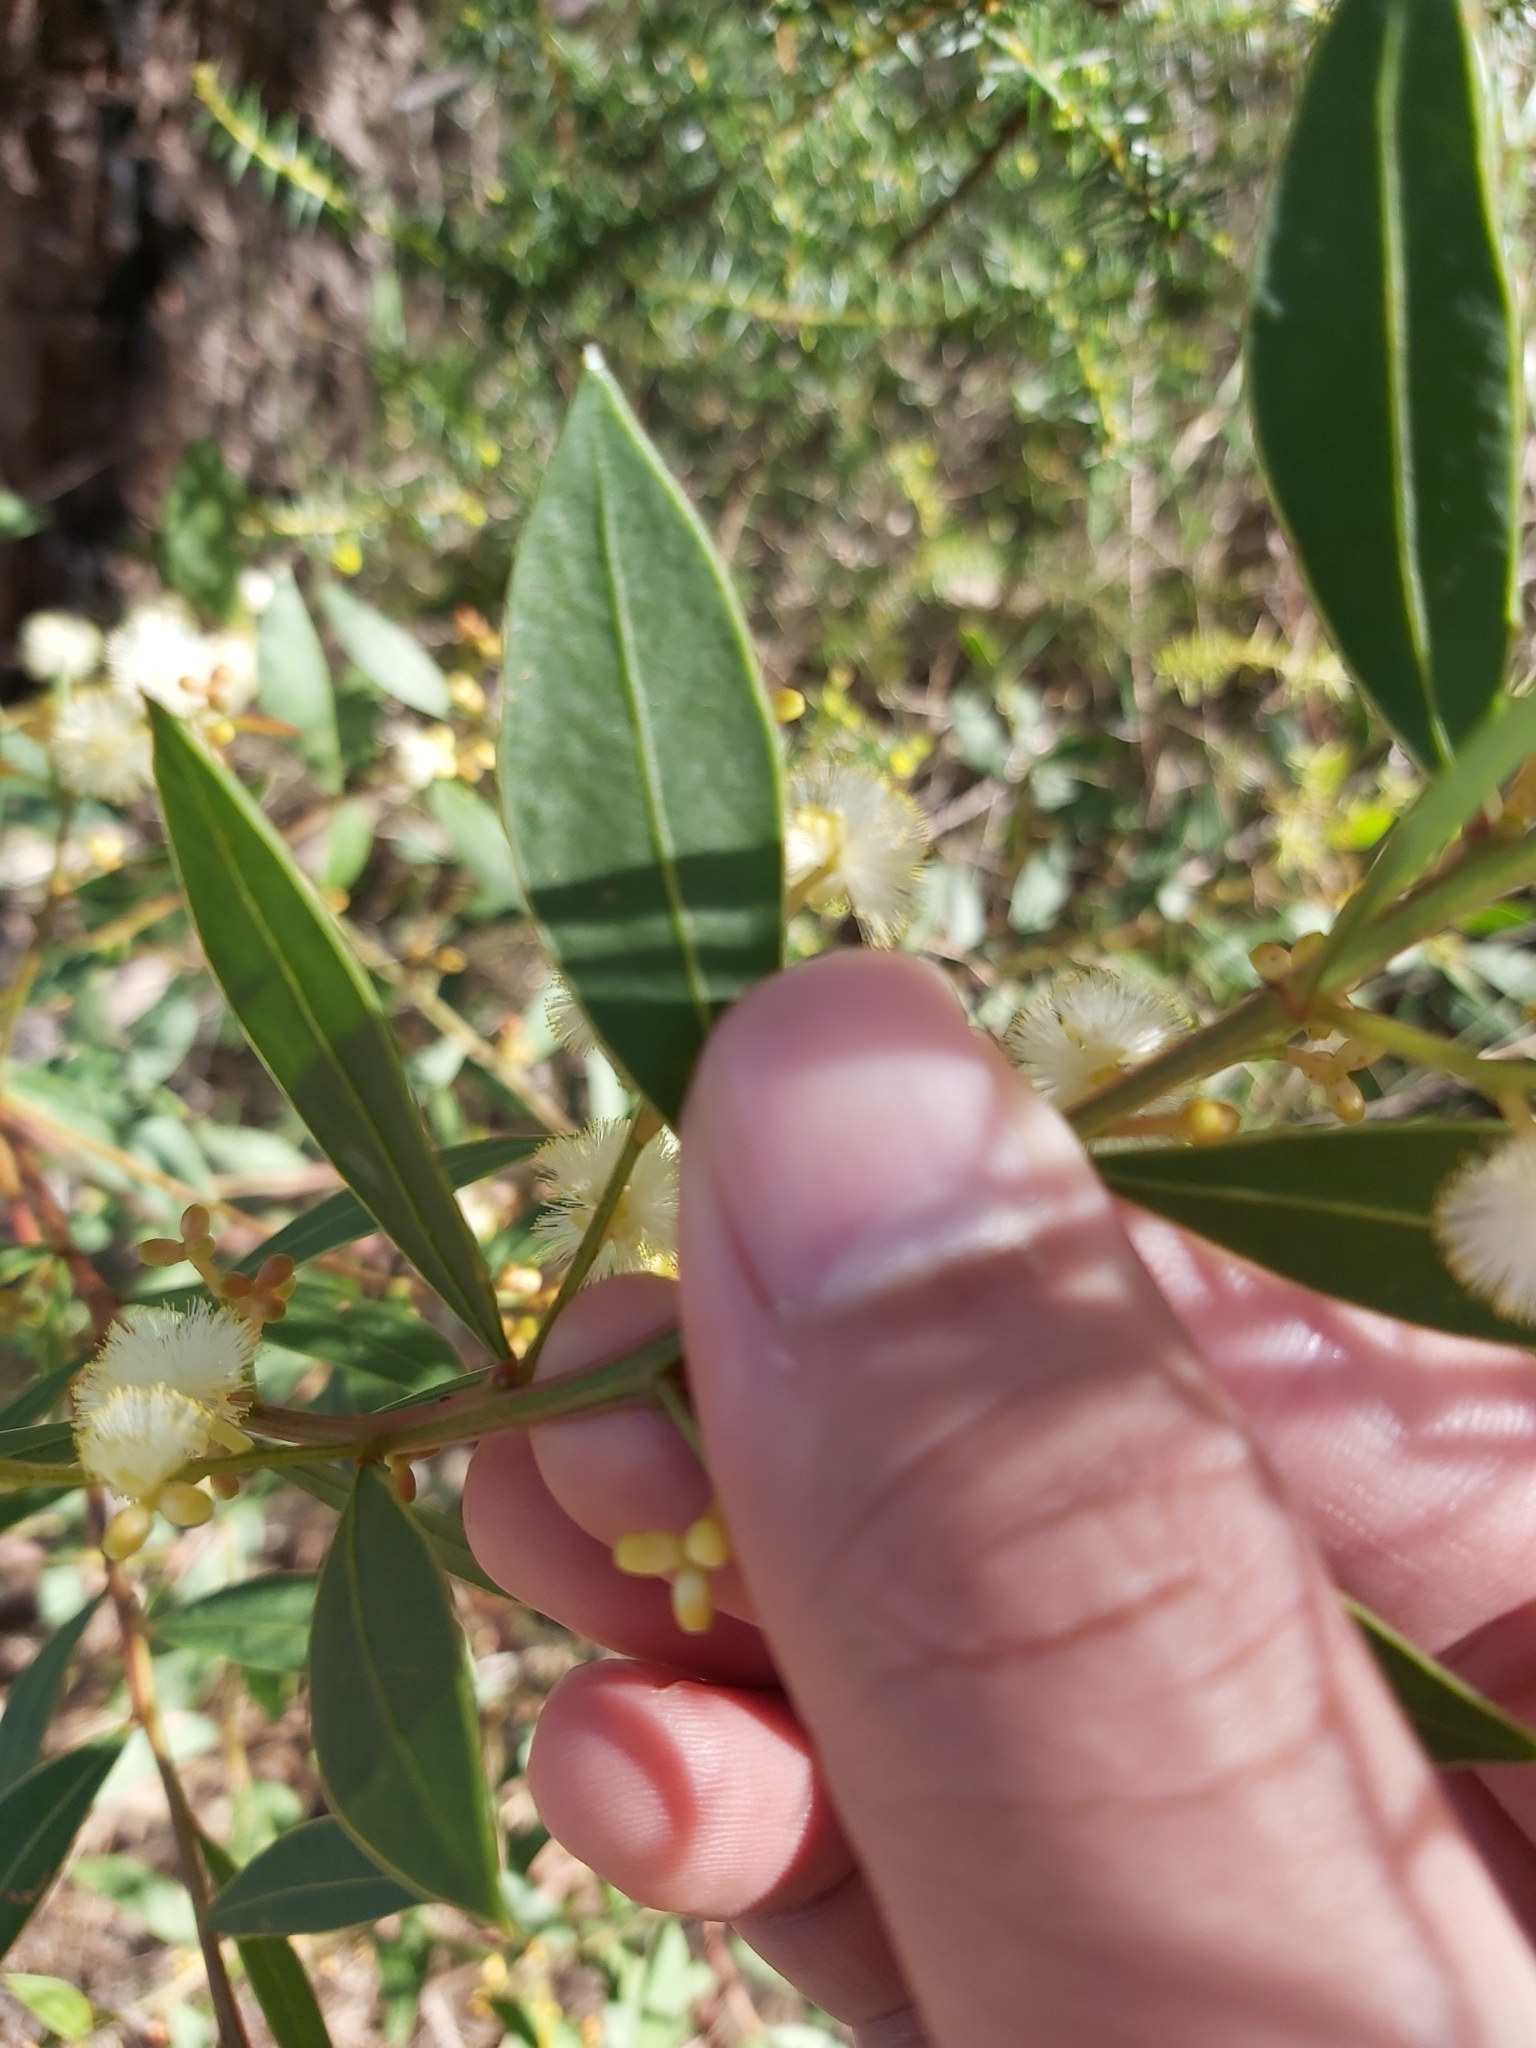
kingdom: Plantae
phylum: Tracheophyta
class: Magnoliopsida
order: Fabales
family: Fabaceae
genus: Acacia
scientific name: Acacia myrtifolia
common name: Myrtle wattle
